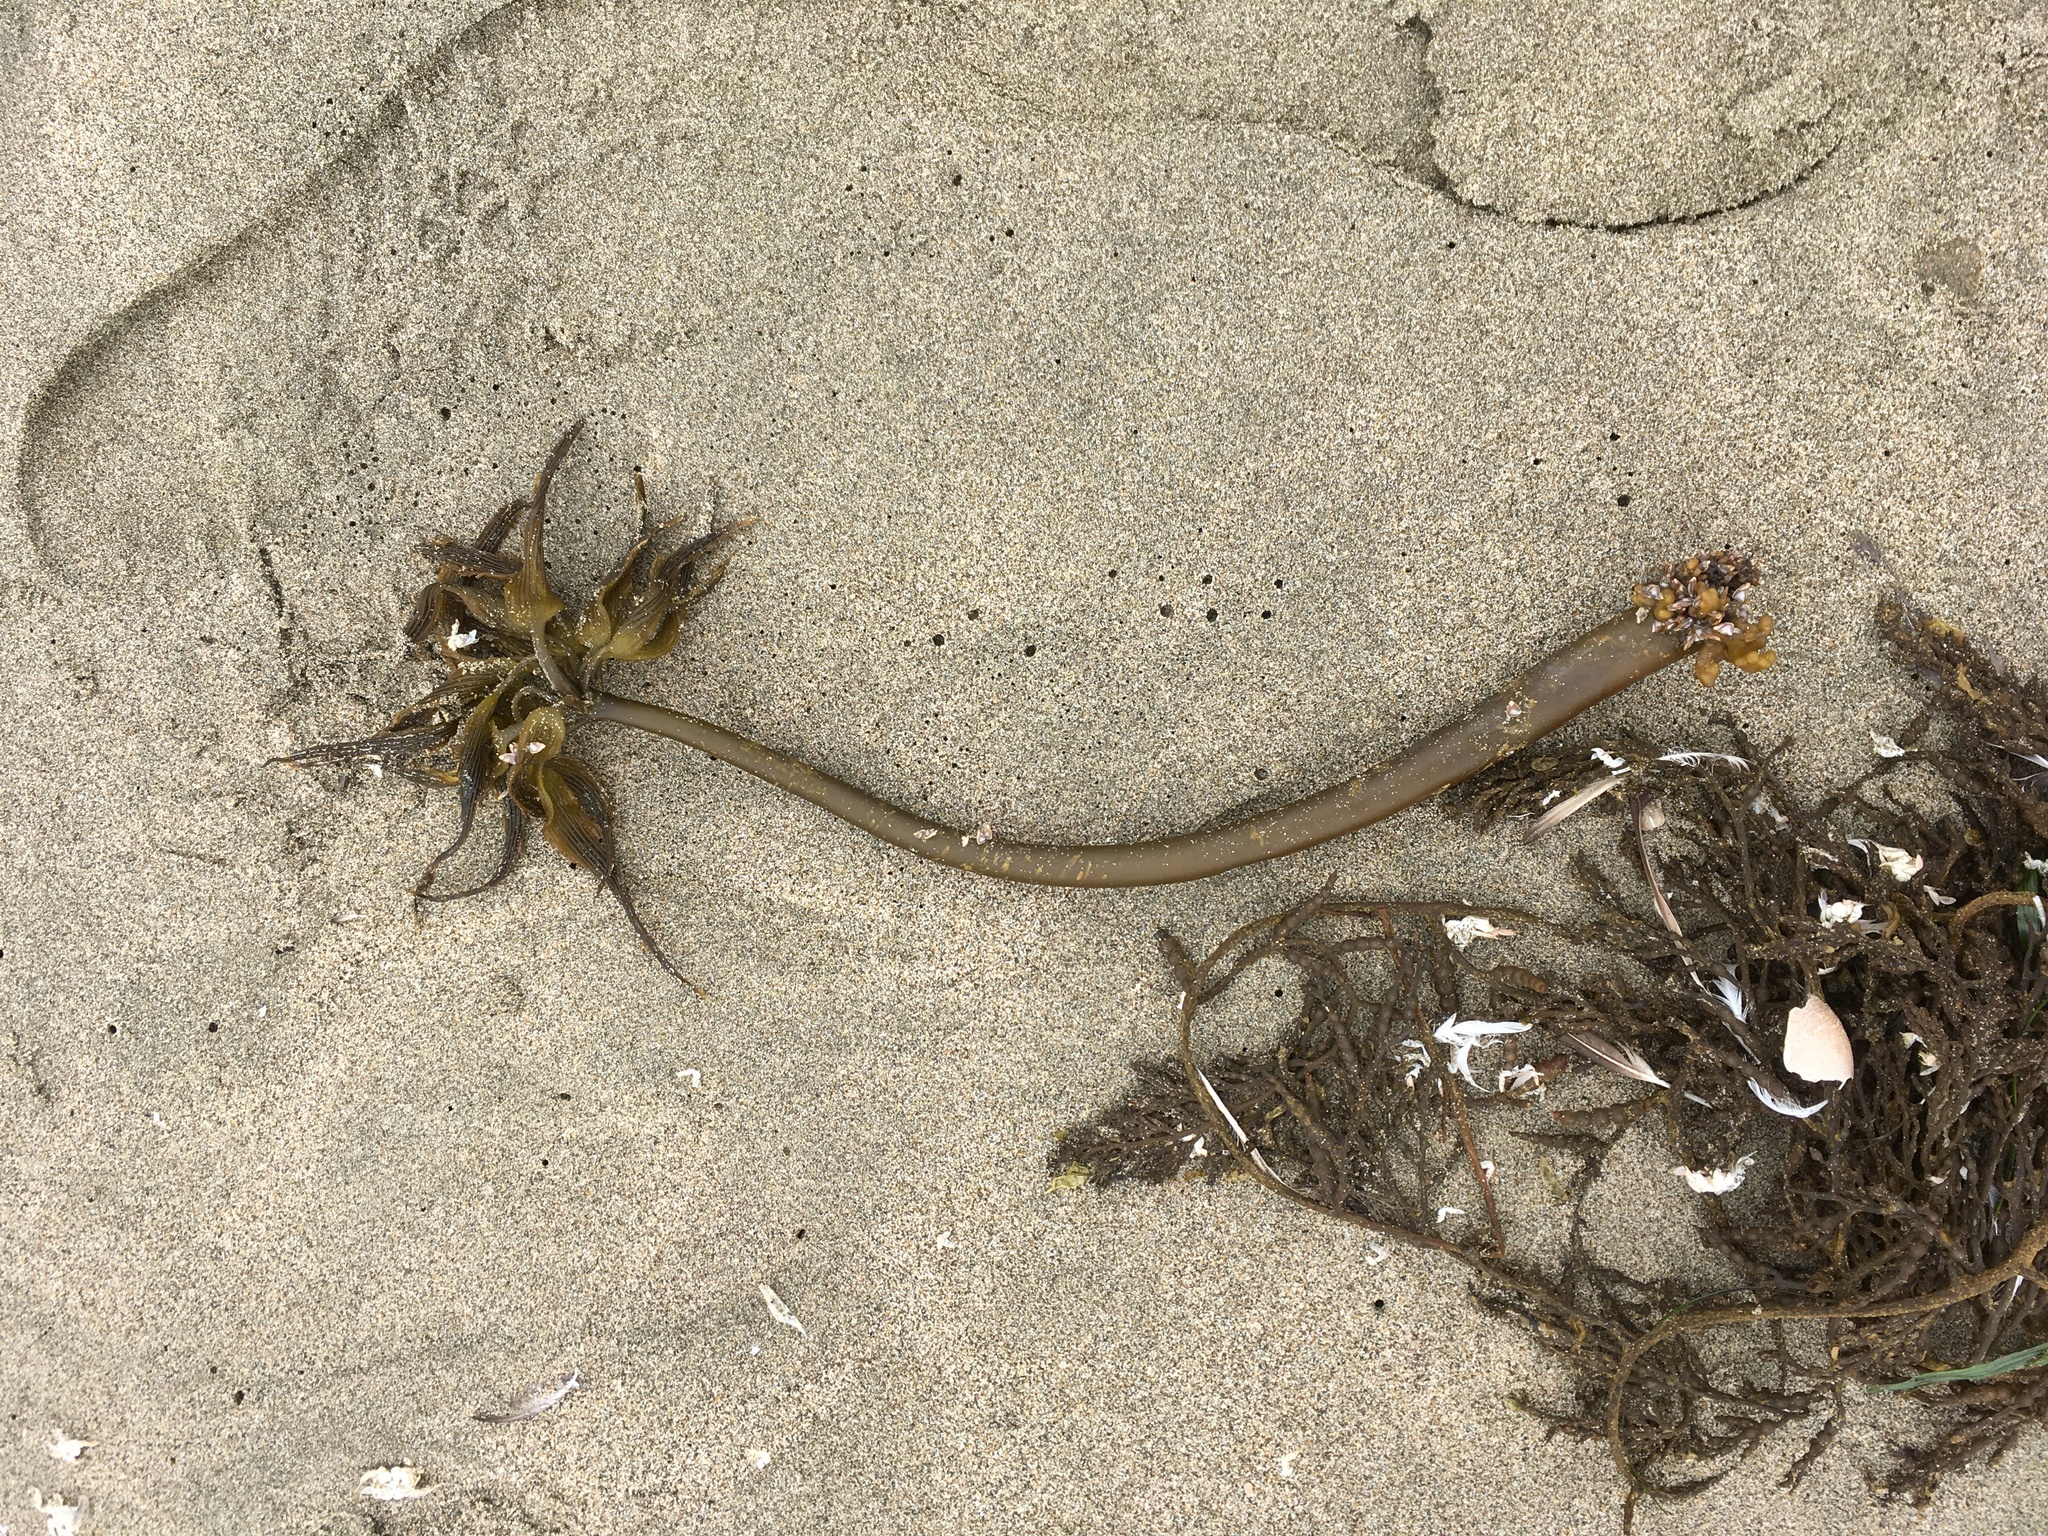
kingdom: Chromista
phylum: Ochrophyta
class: Phaeophyceae
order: Laminariales
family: Laminariaceae
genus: Postelsia
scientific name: Postelsia palmiformis
